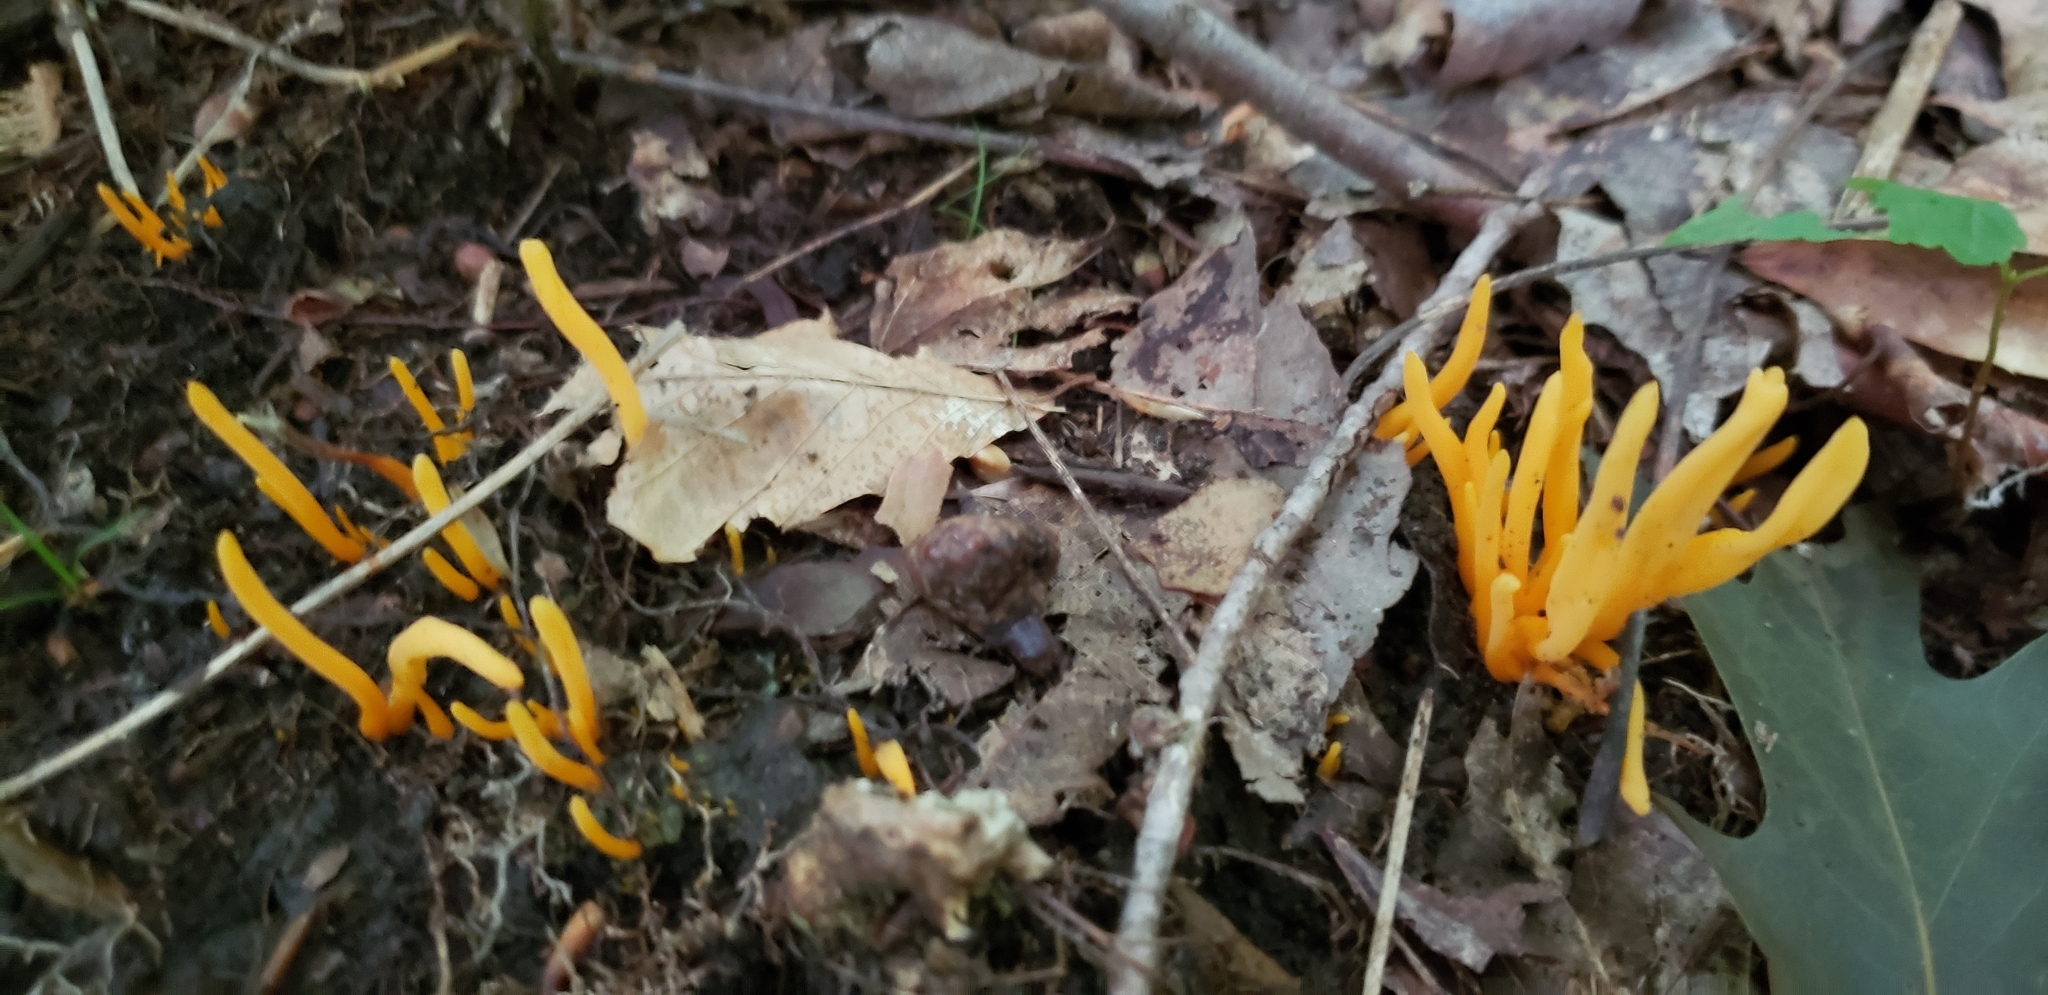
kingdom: Fungi
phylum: Basidiomycota
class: Agaricomycetes
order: Agaricales
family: Clavariaceae
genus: Clavulinopsis
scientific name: Clavulinopsis fusiformis
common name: Golden spindles
